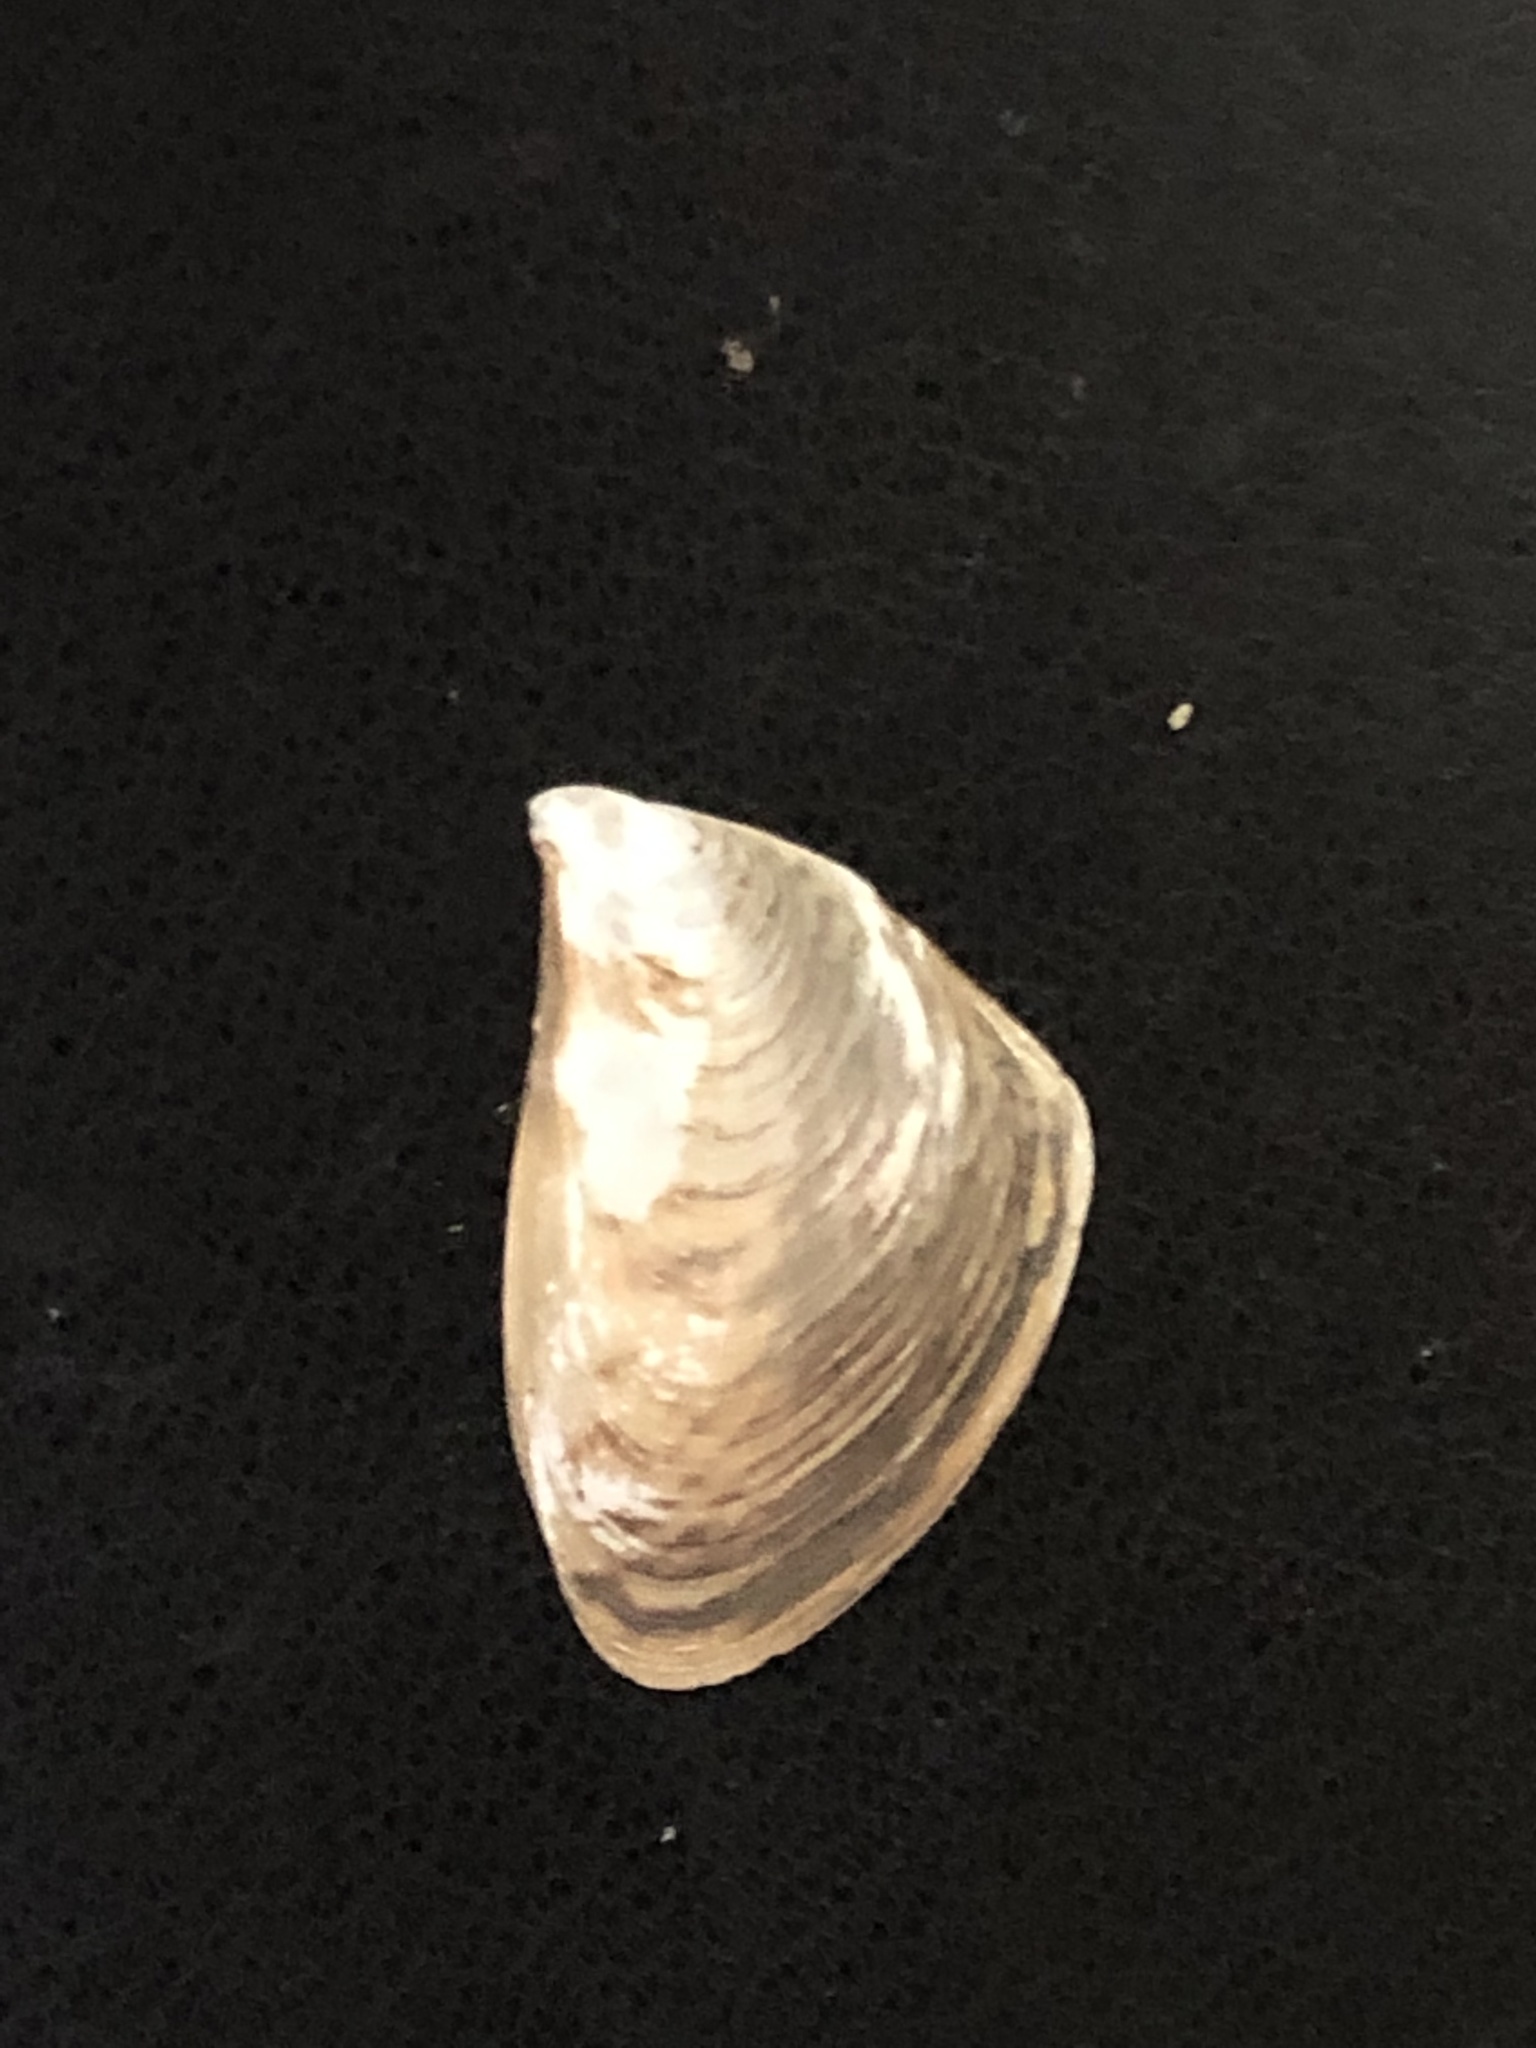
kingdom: Animalia
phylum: Mollusca
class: Bivalvia
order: Myida
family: Dreissenidae
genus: Dreissena
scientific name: Dreissena bugensis
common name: Quagga mussel
